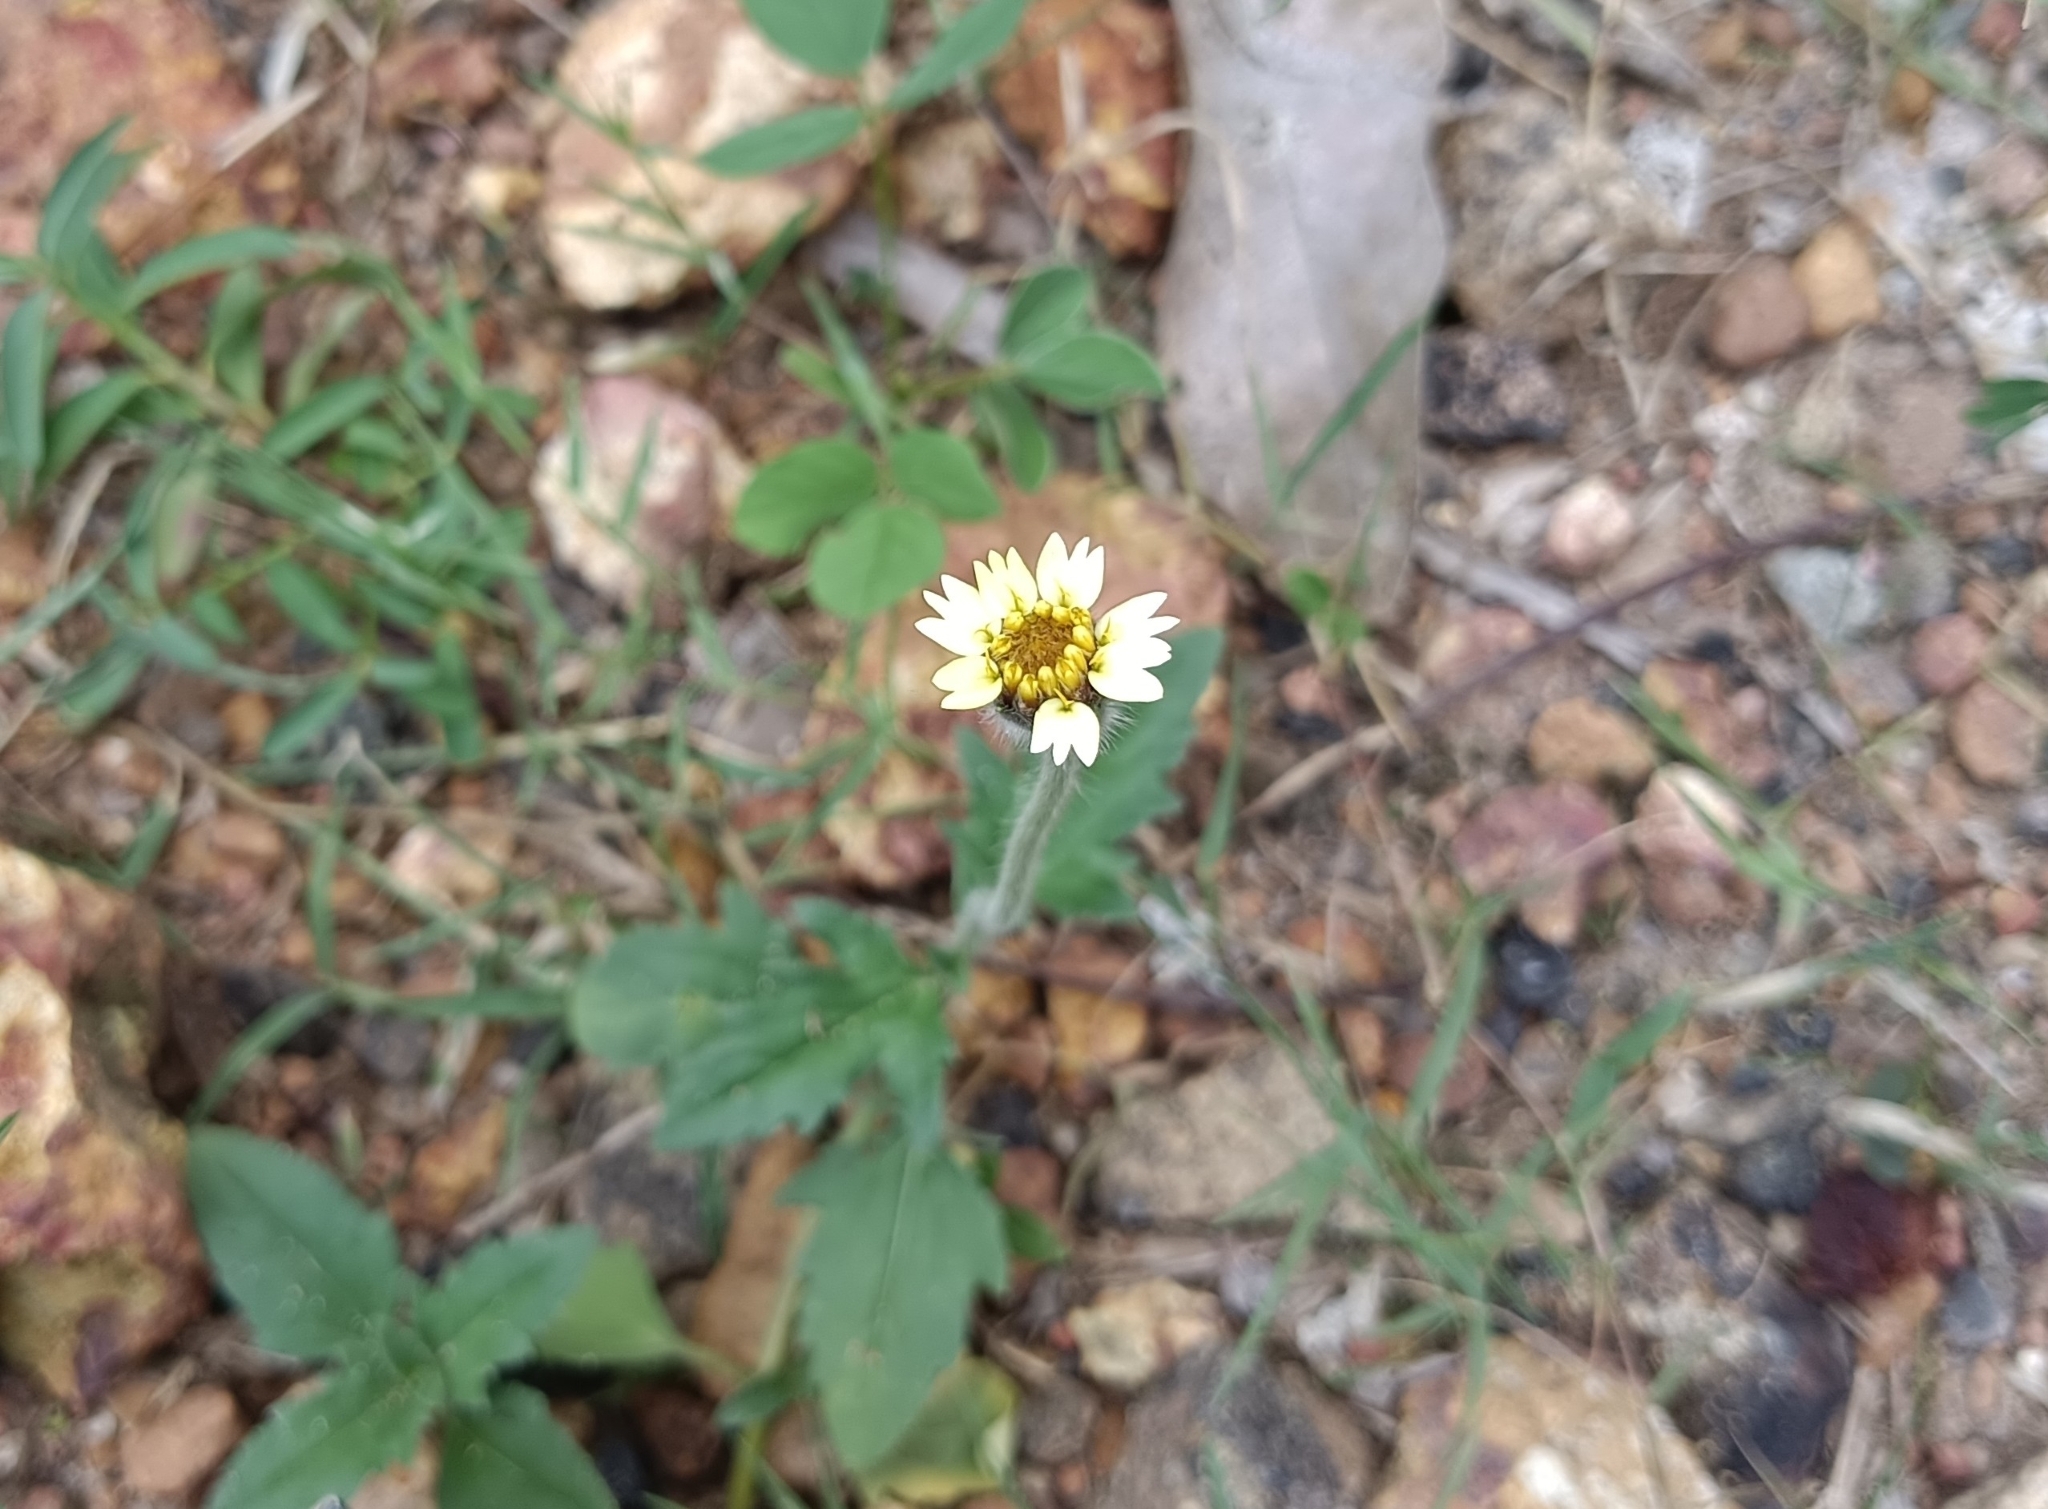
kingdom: Plantae
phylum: Tracheophyta
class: Magnoliopsida
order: Asterales
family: Asteraceae
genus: Tridax
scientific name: Tridax procumbens
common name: Coatbuttons
